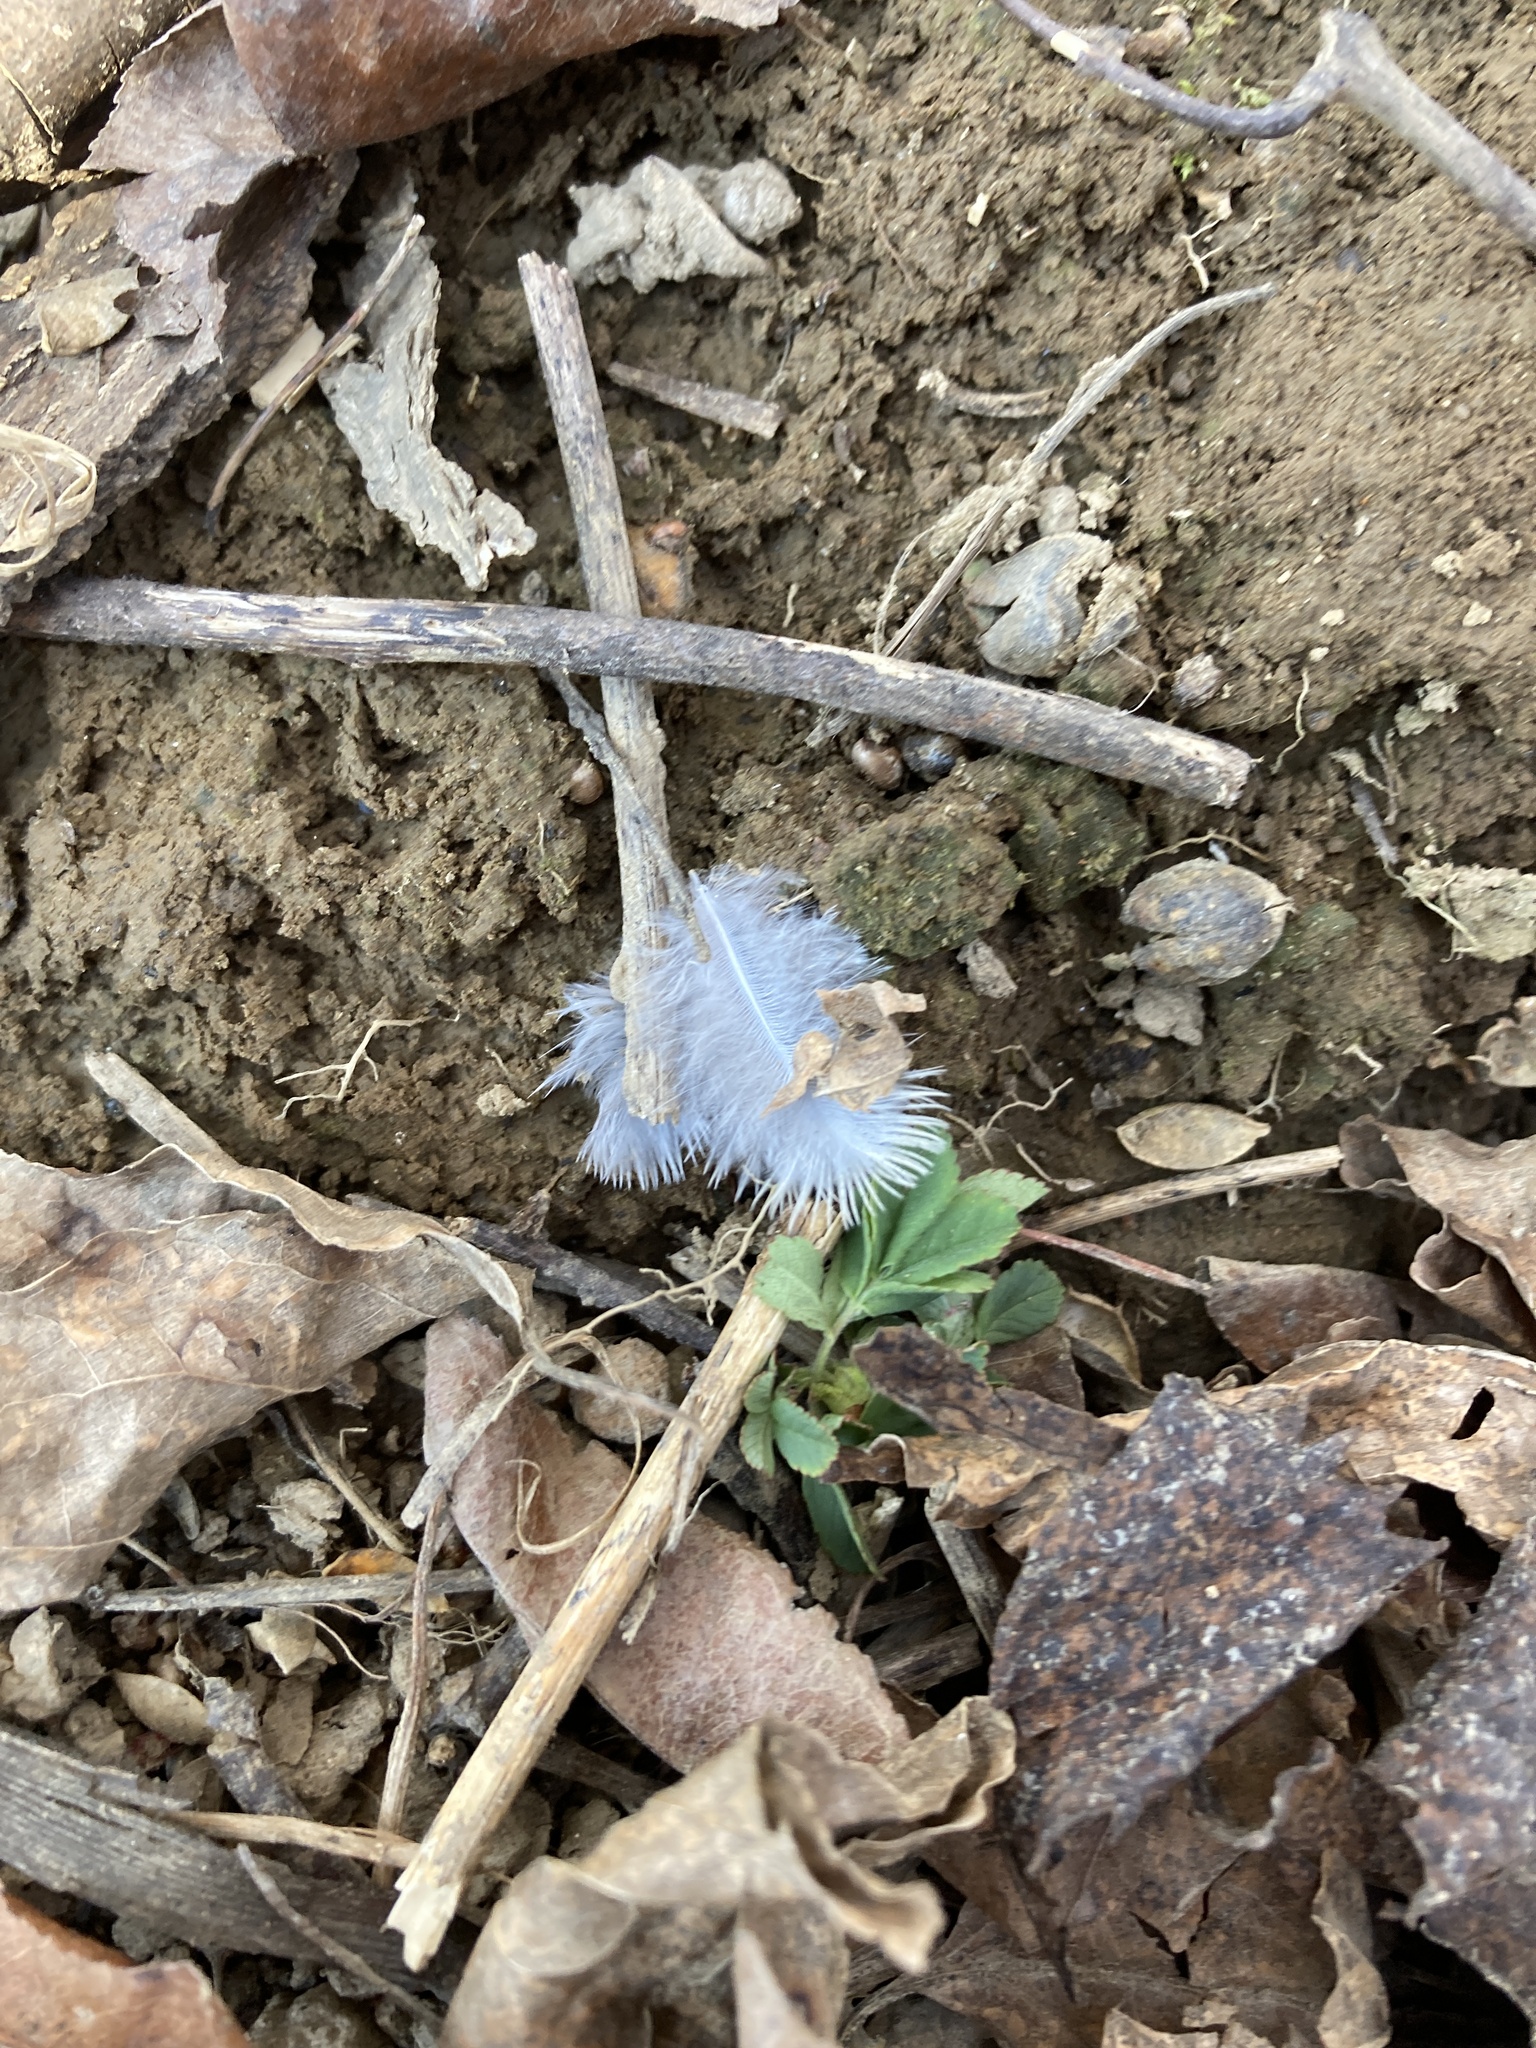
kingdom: Animalia
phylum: Chordata
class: Aves
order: Columbiformes
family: Columbidae
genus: Zenaida
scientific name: Zenaida macroura
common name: Mourning dove
